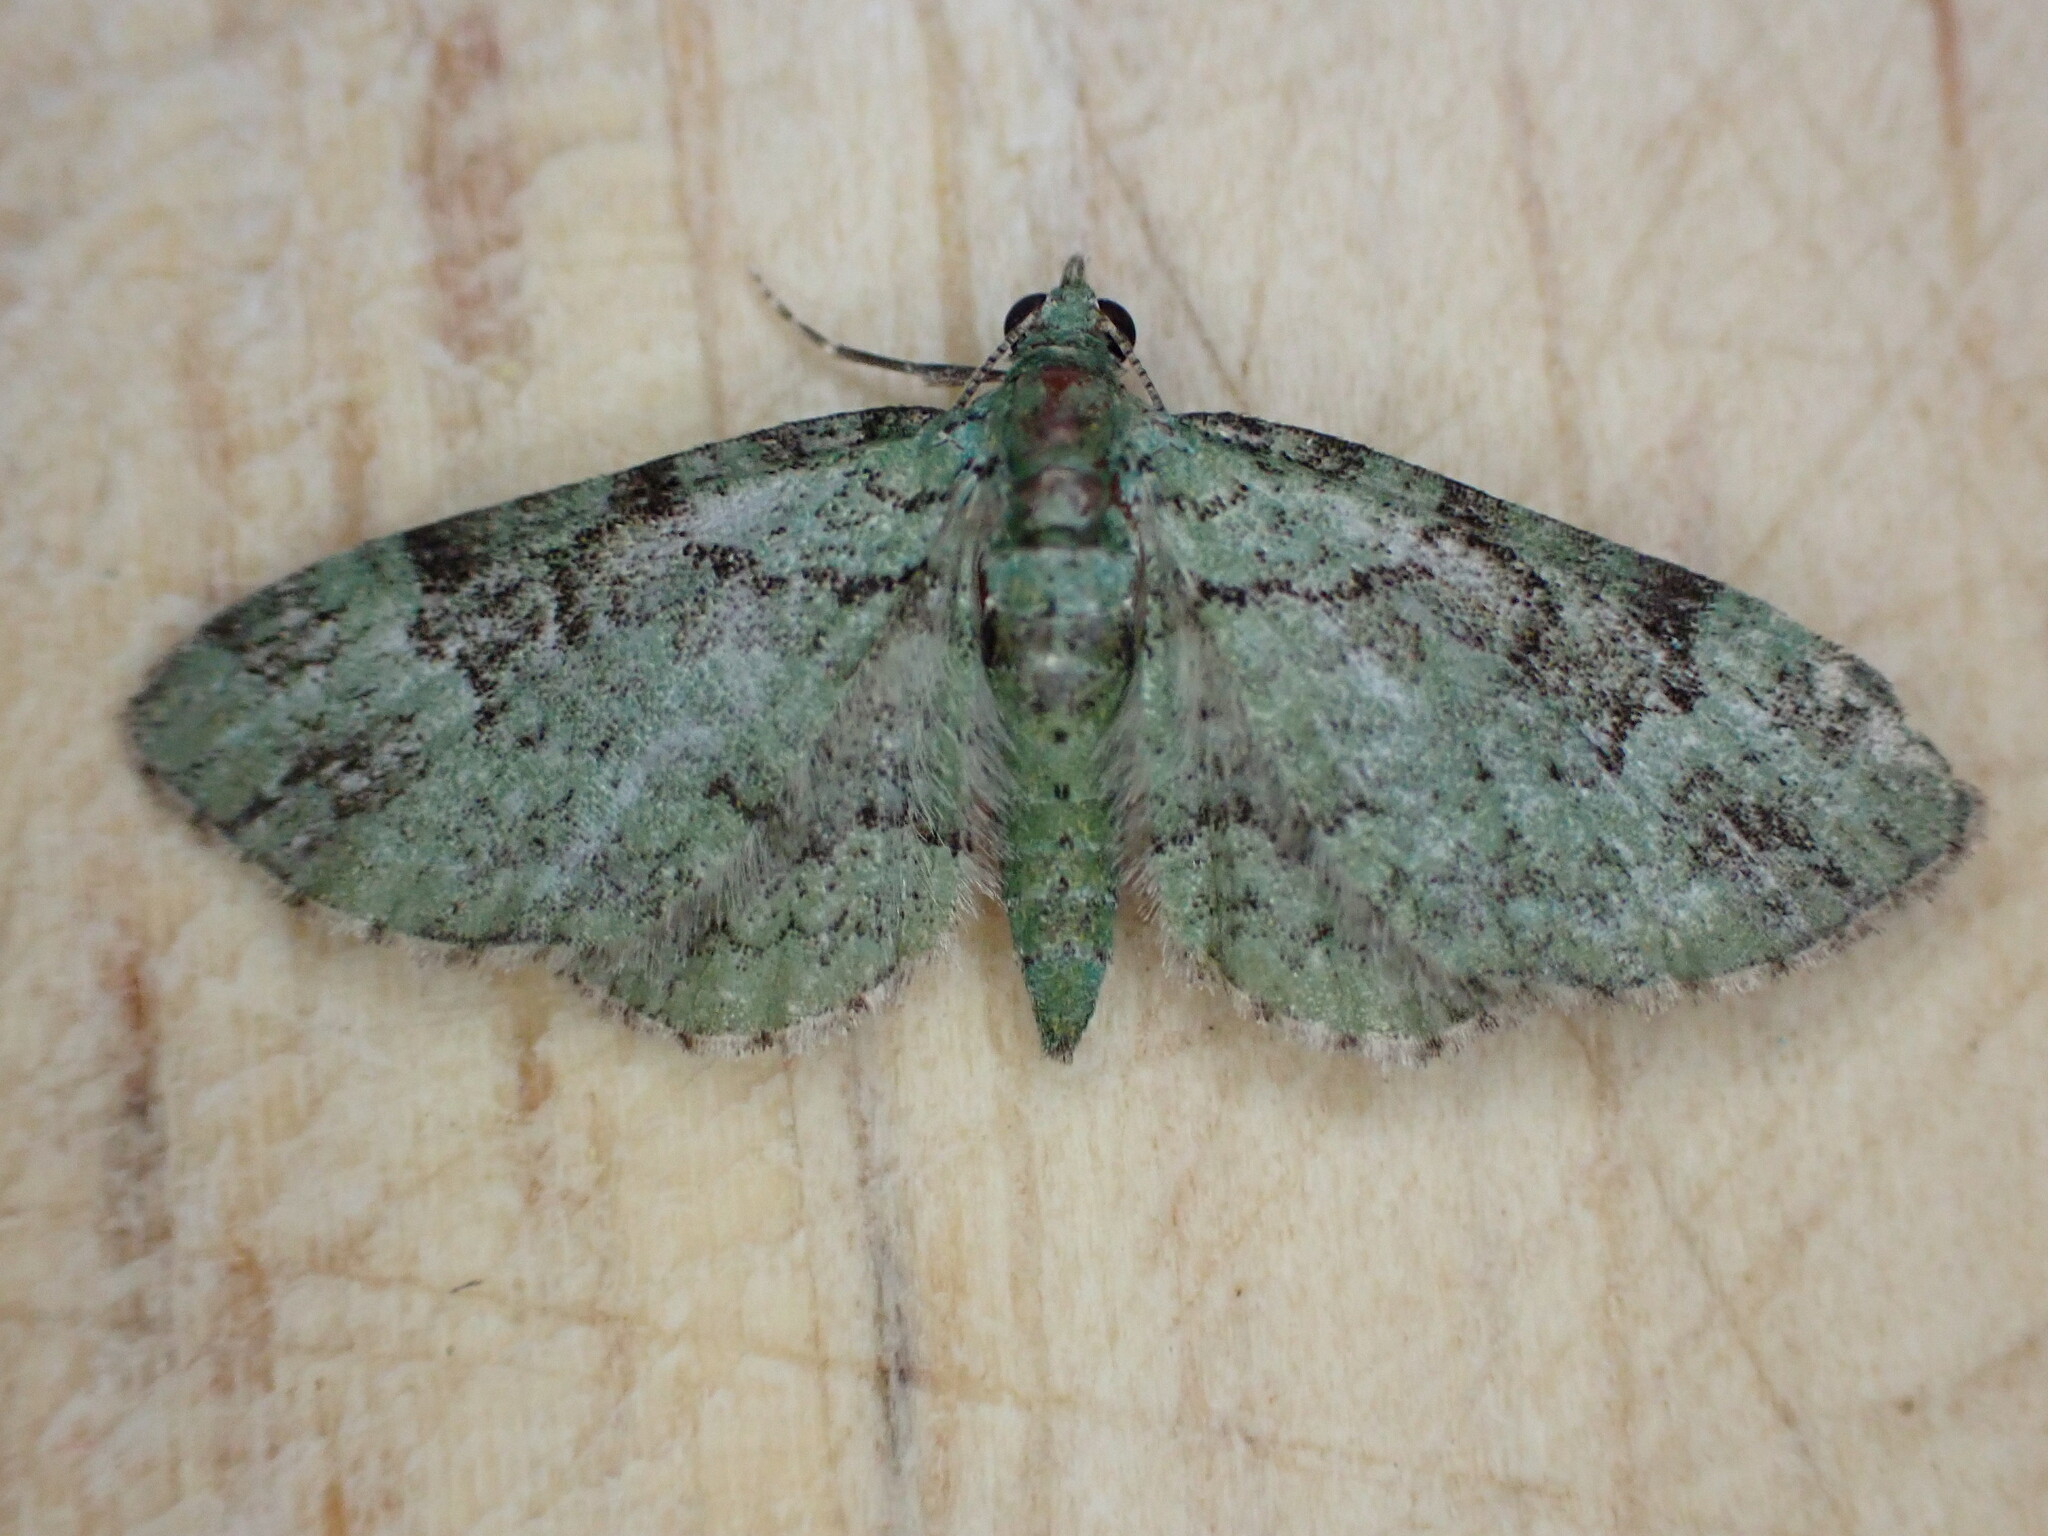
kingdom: Animalia
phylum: Arthropoda
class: Insecta
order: Lepidoptera
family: Geometridae
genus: Pasiphila
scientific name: Pasiphila rectangulata
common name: Green pug
